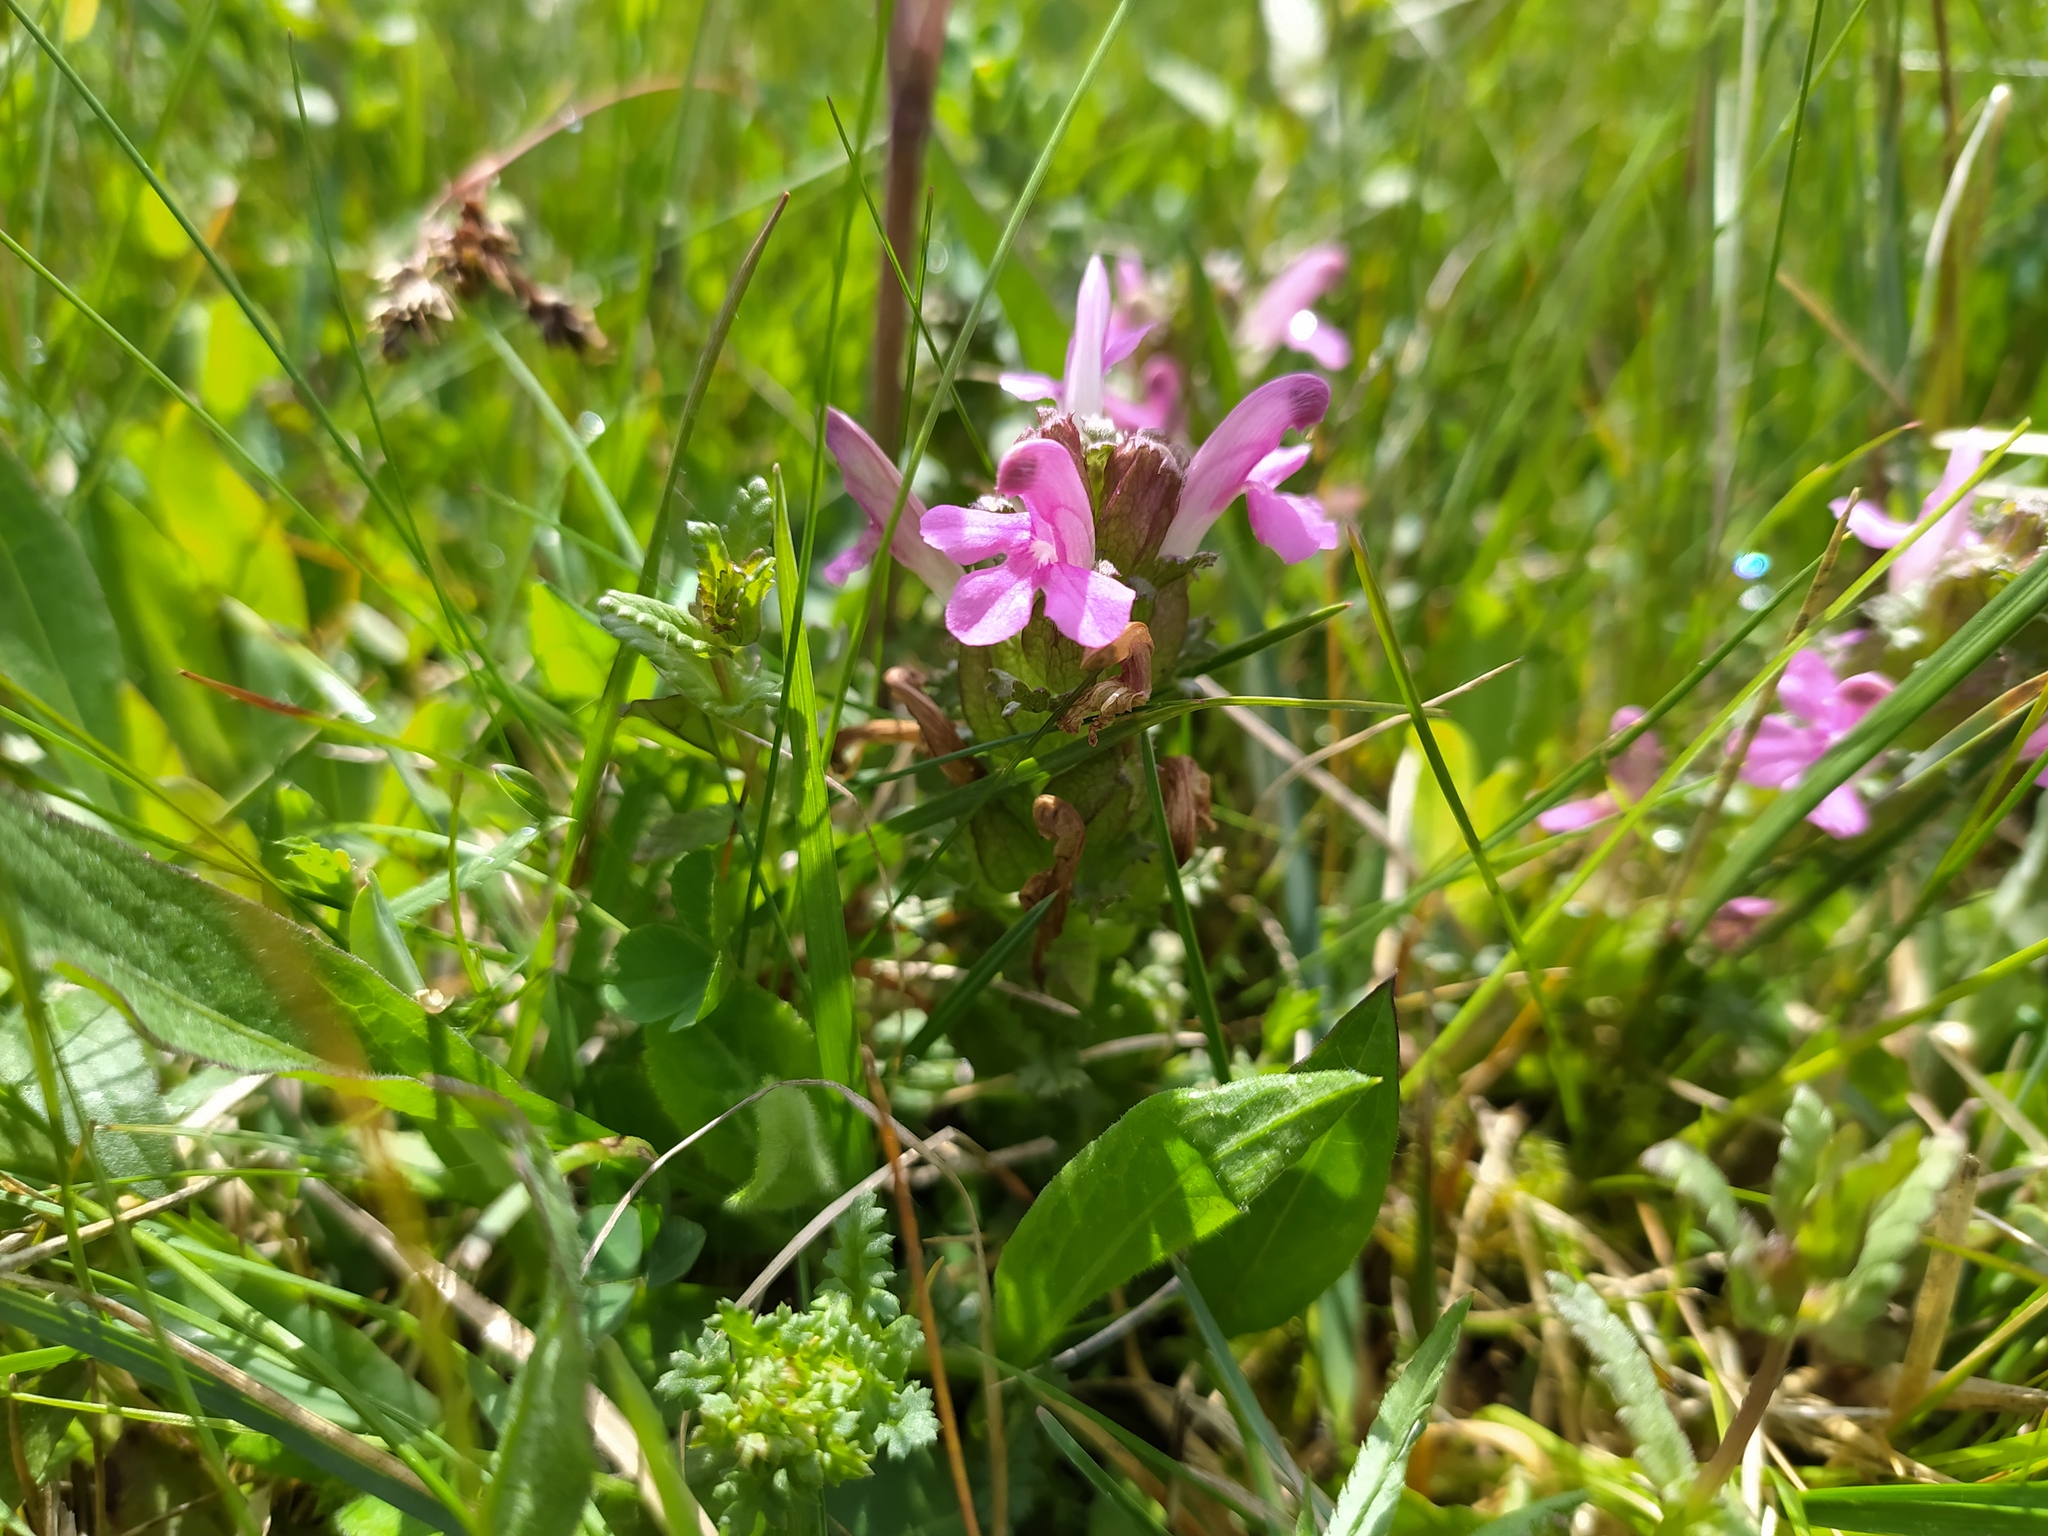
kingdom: Plantae
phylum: Tracheophyta
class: Magnoliopsida
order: Lamiales
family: Orobanchaceae
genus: Pedicularis
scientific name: Pedicularis sylvatica
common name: Lousewort
